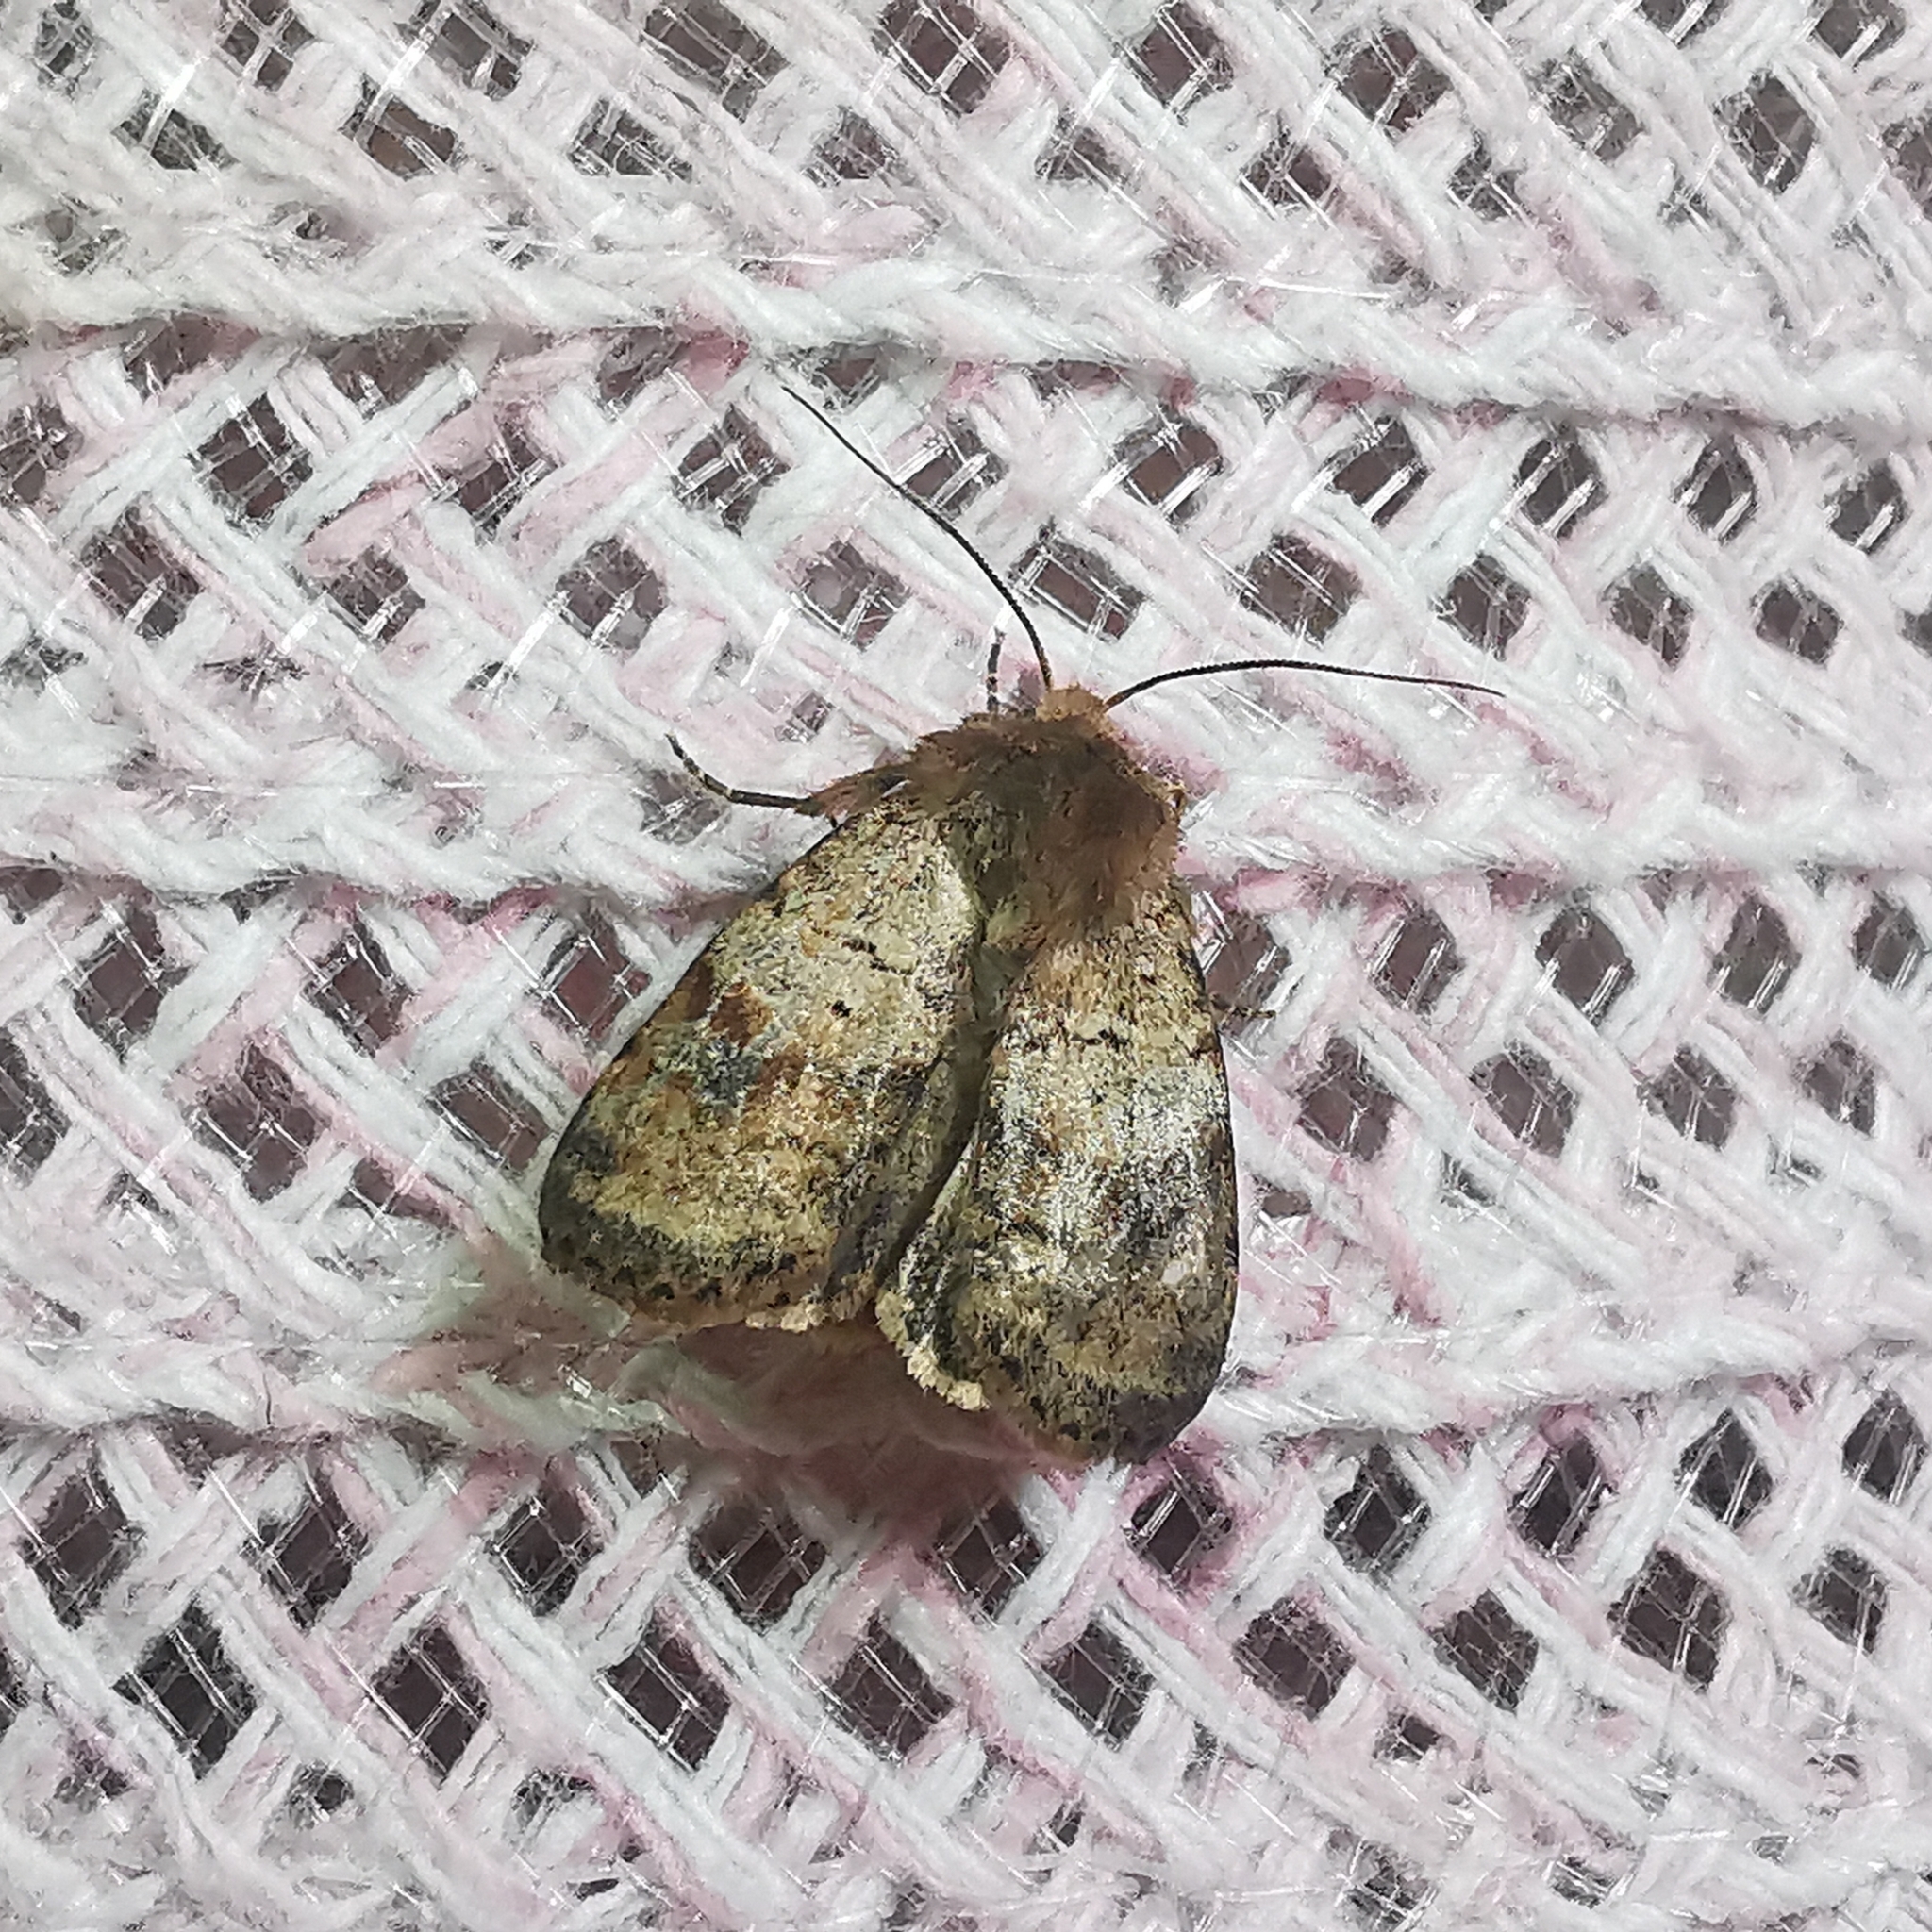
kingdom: Animalia
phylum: Arthropoda
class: Insecta
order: Lepidoptera
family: Noctuidae
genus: Diarsia
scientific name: Diarsia dahlii
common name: Barred chestnut
